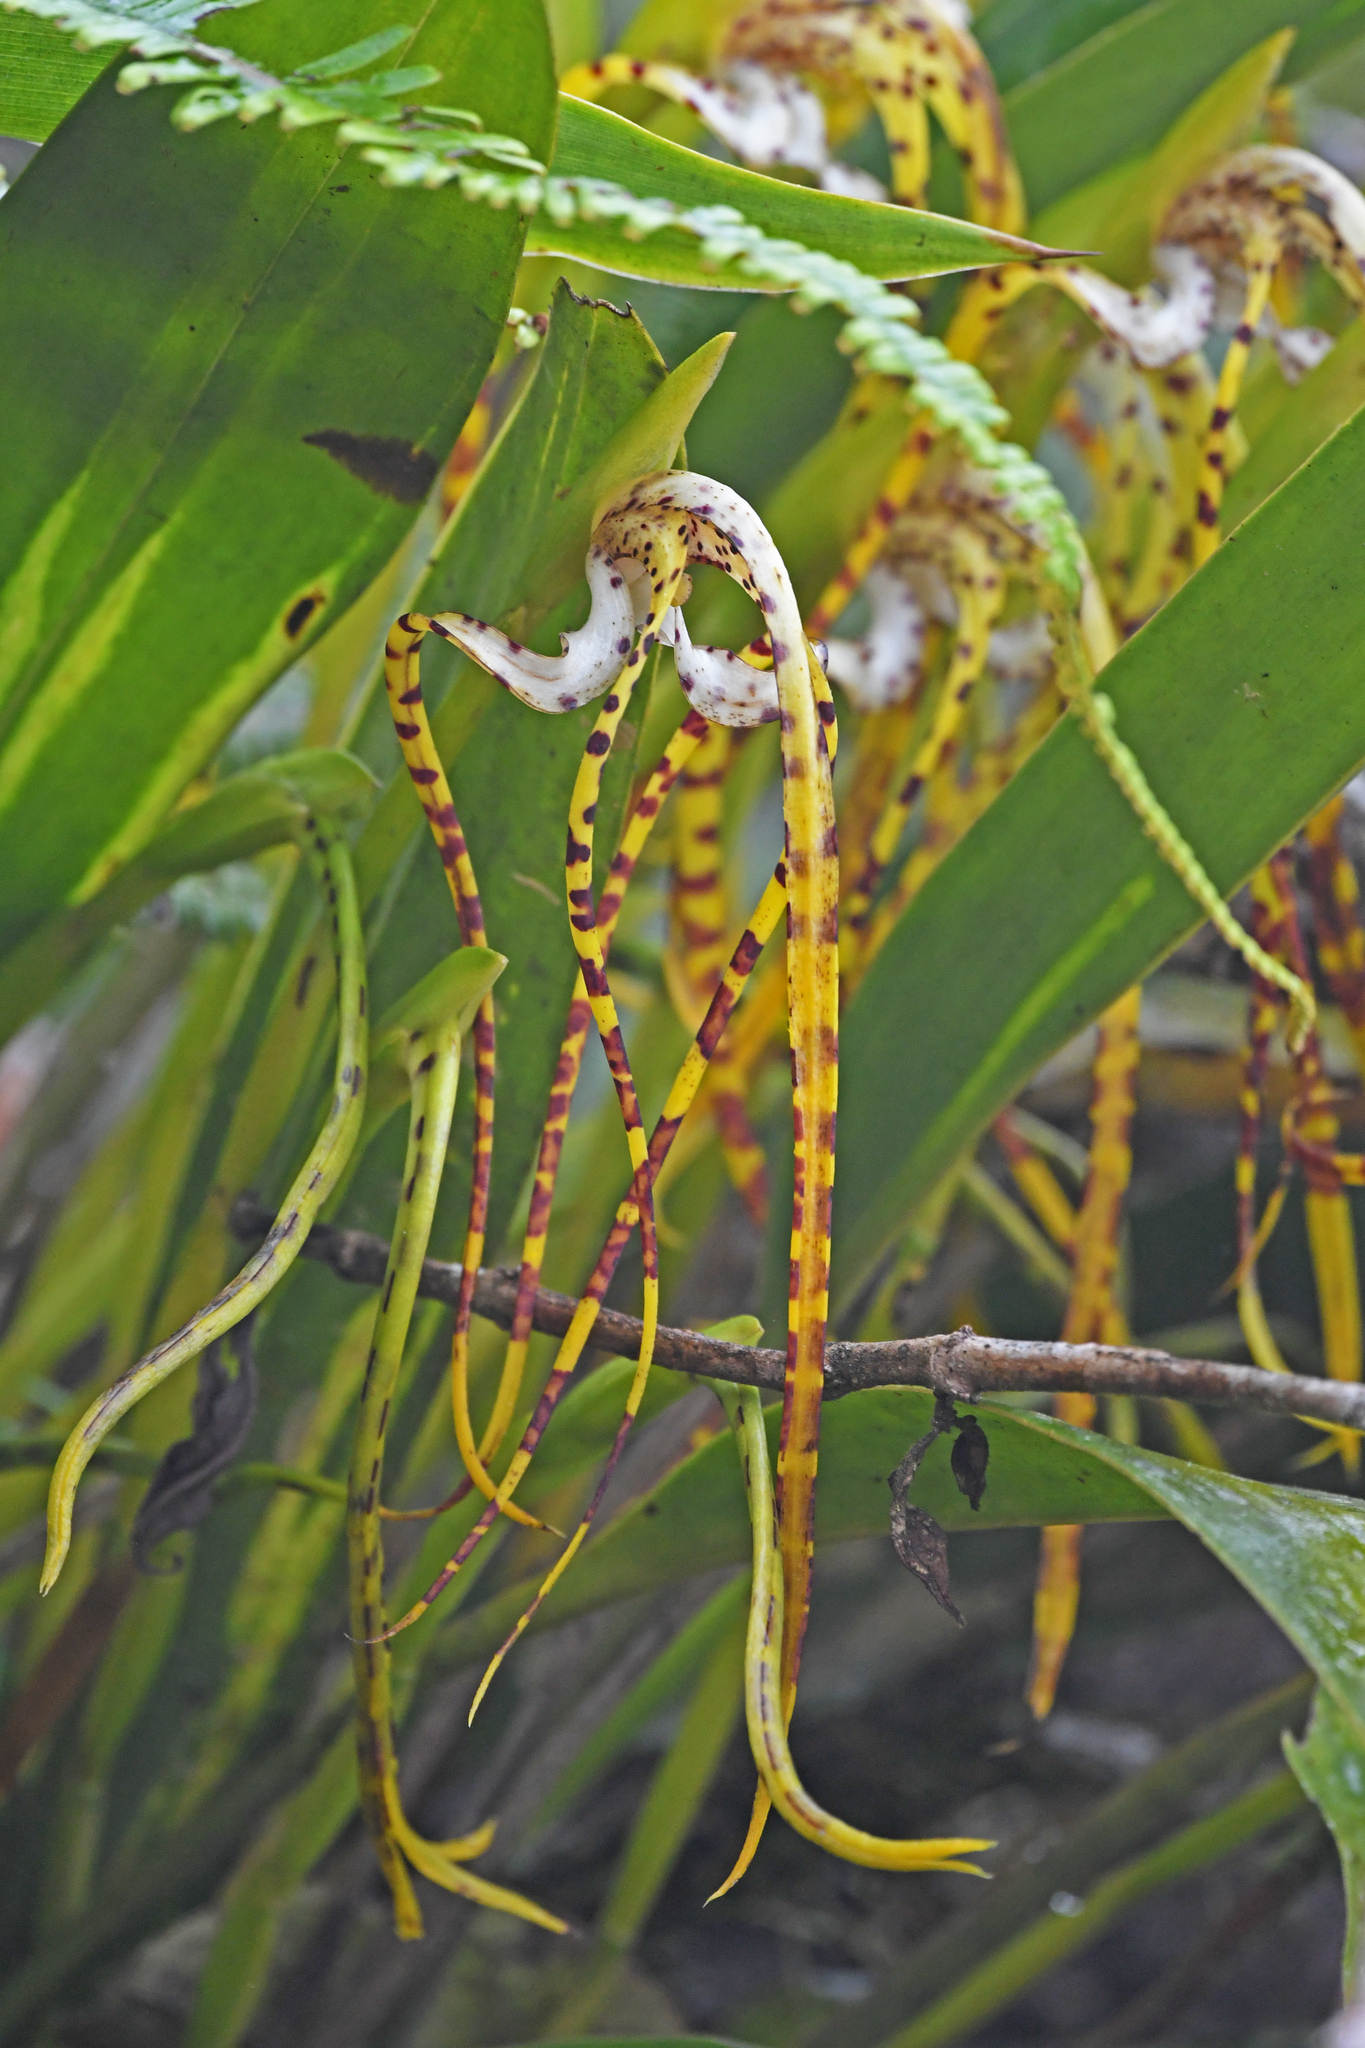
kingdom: Plantae
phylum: Tracheophyta
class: Liliopsida
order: Asparagales
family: Orchidaceae
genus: Maxillaria
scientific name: Maxillaria speciosa
